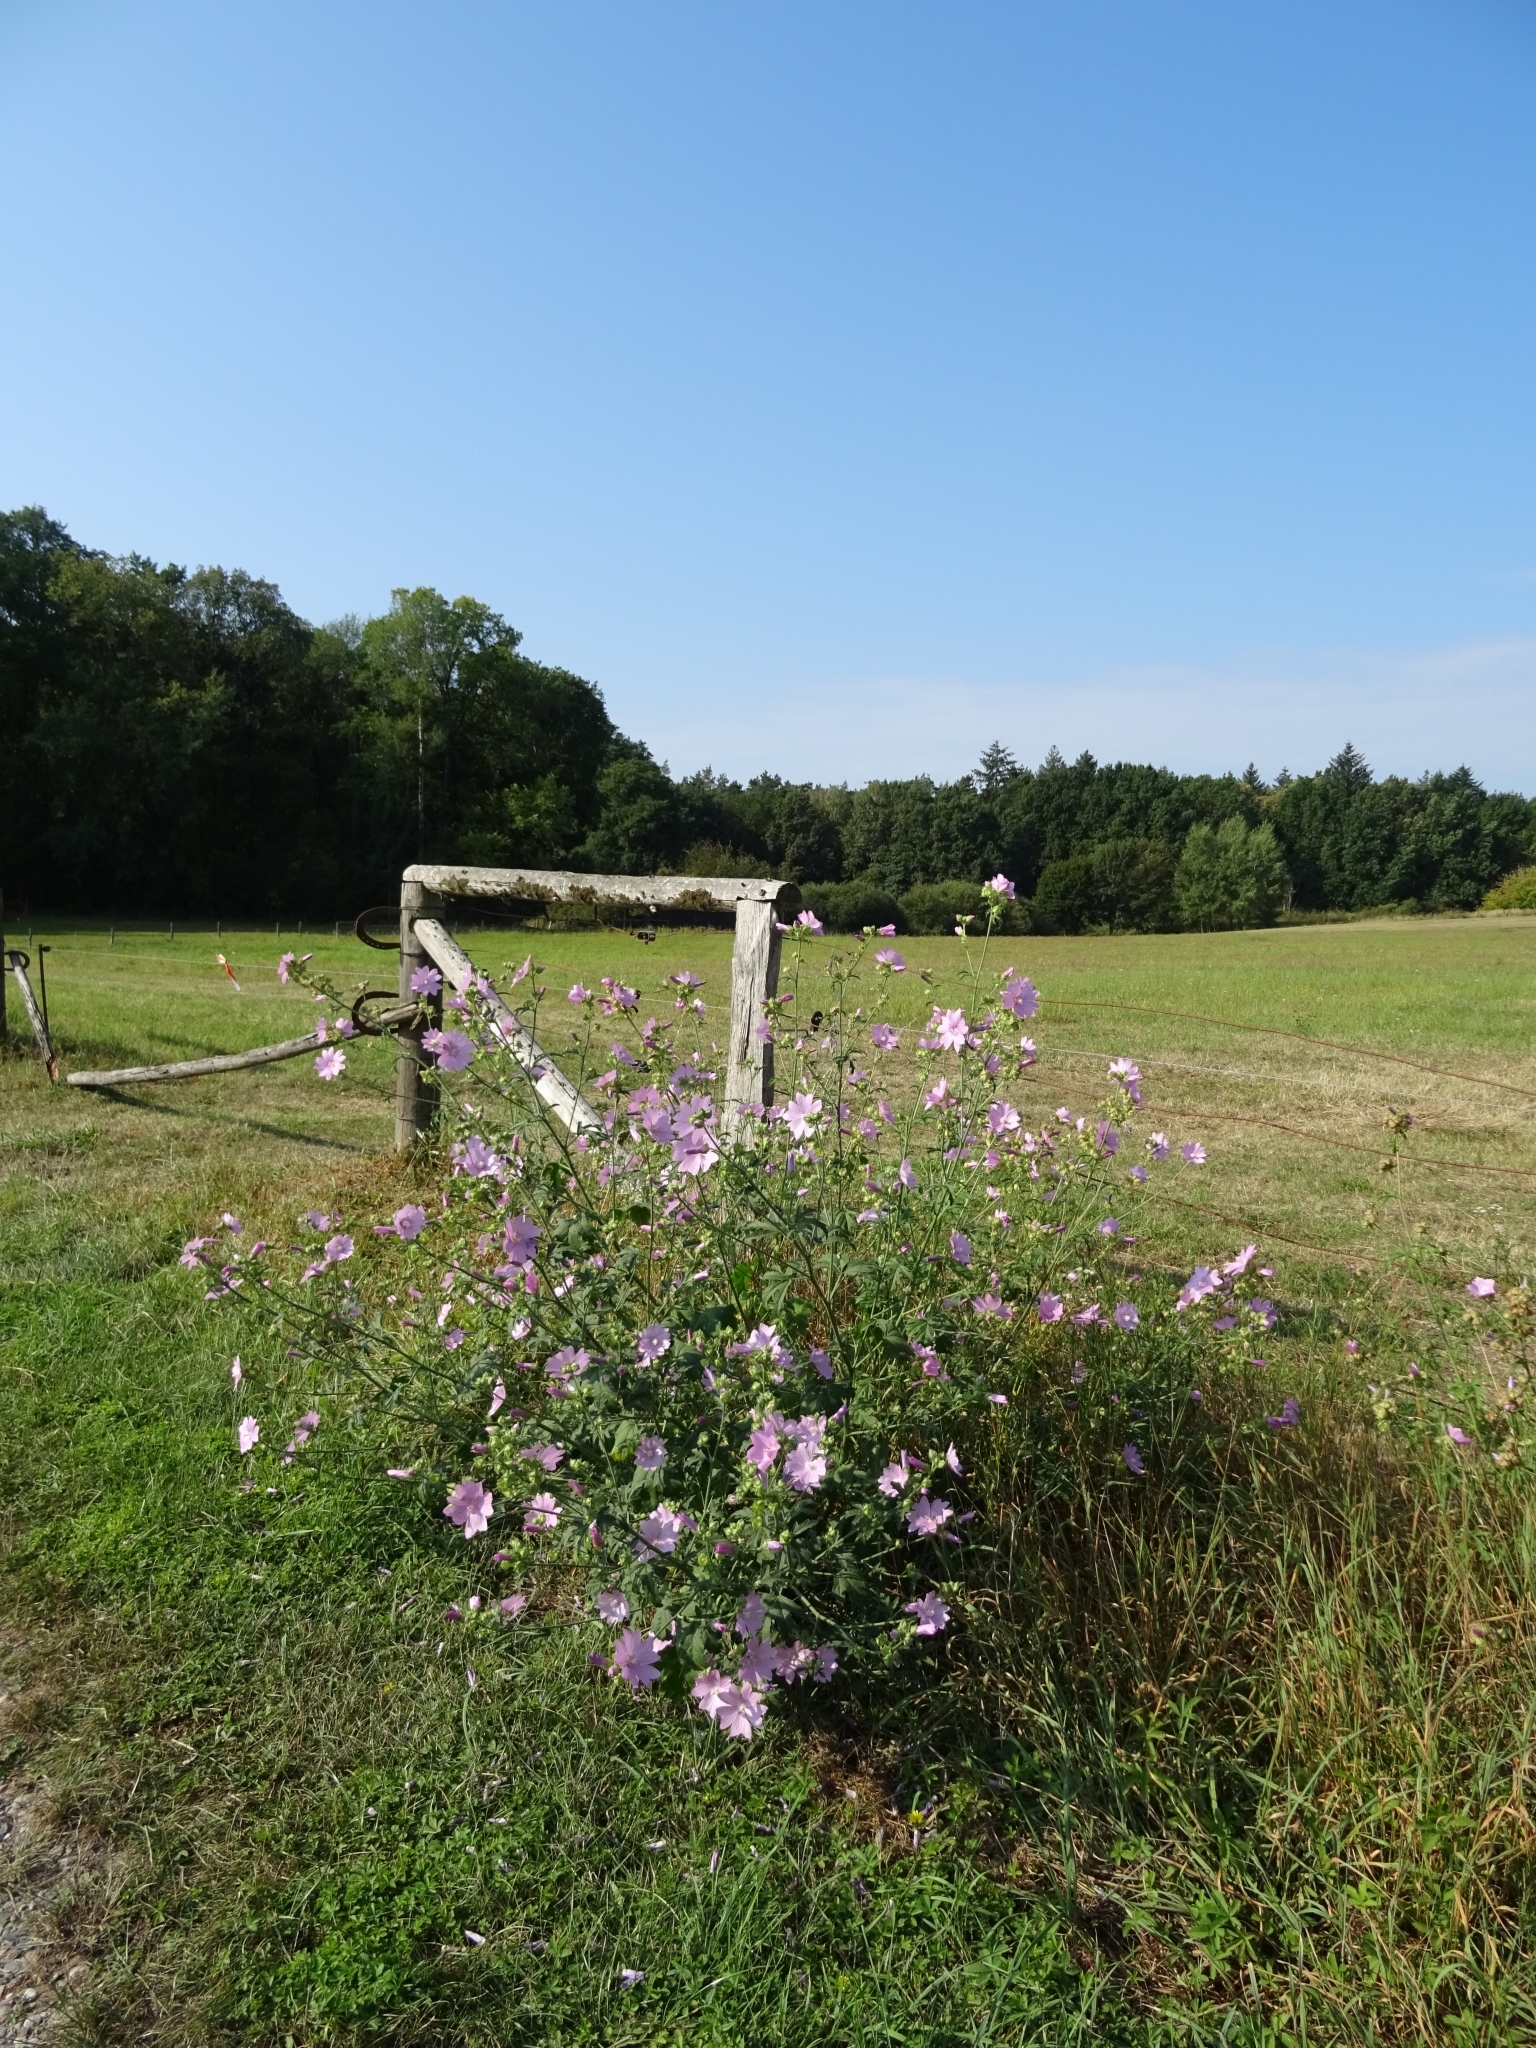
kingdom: Plantae
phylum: Tracheophyta
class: Magnoliopsida
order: Malvales
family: Malvaceae
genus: Malva
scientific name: Malva moschata
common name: Musk mallow
